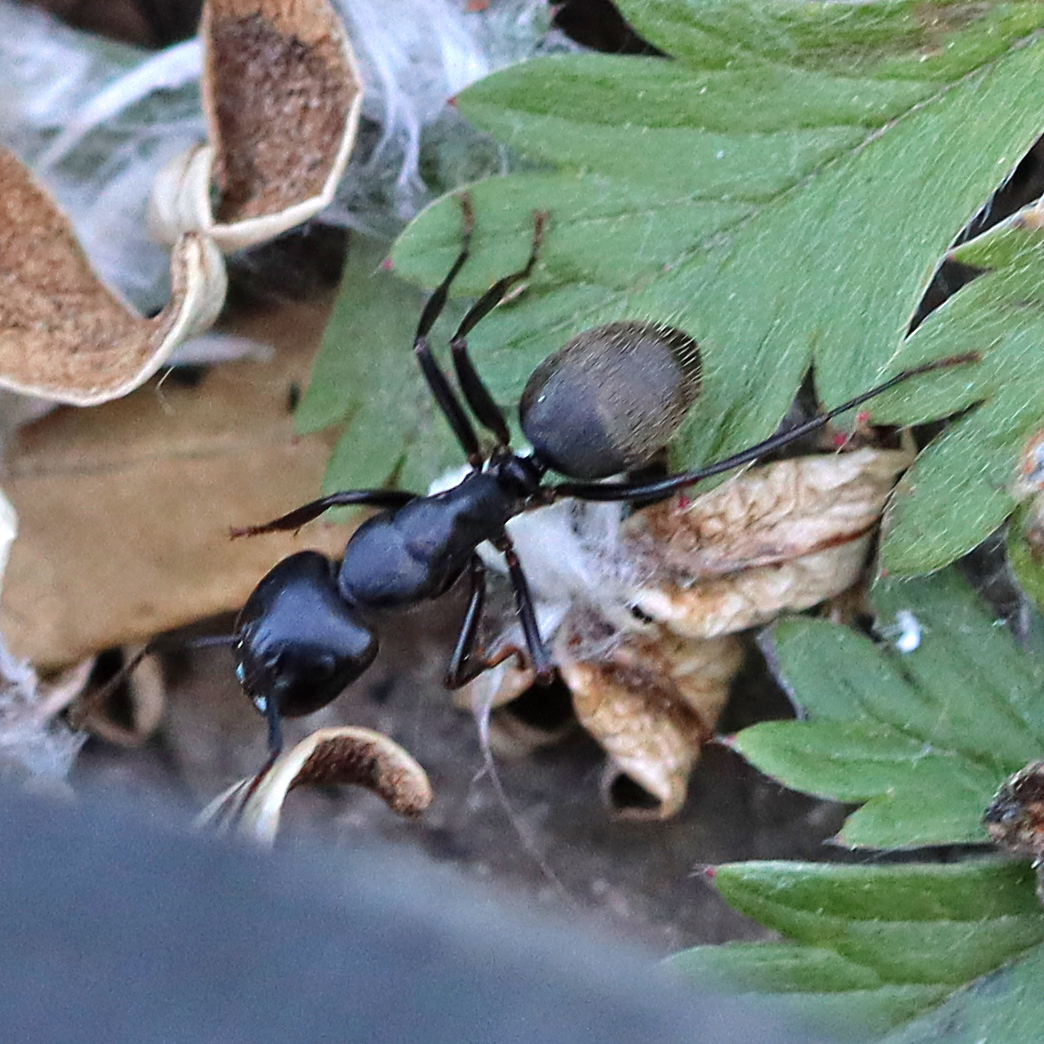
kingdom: Animalia
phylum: Arthropoda
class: Insecta
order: Hymenoptera
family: Formicidae
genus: Camponotus
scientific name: Camponotus pennsylvanicus
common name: Black carpenter ant
